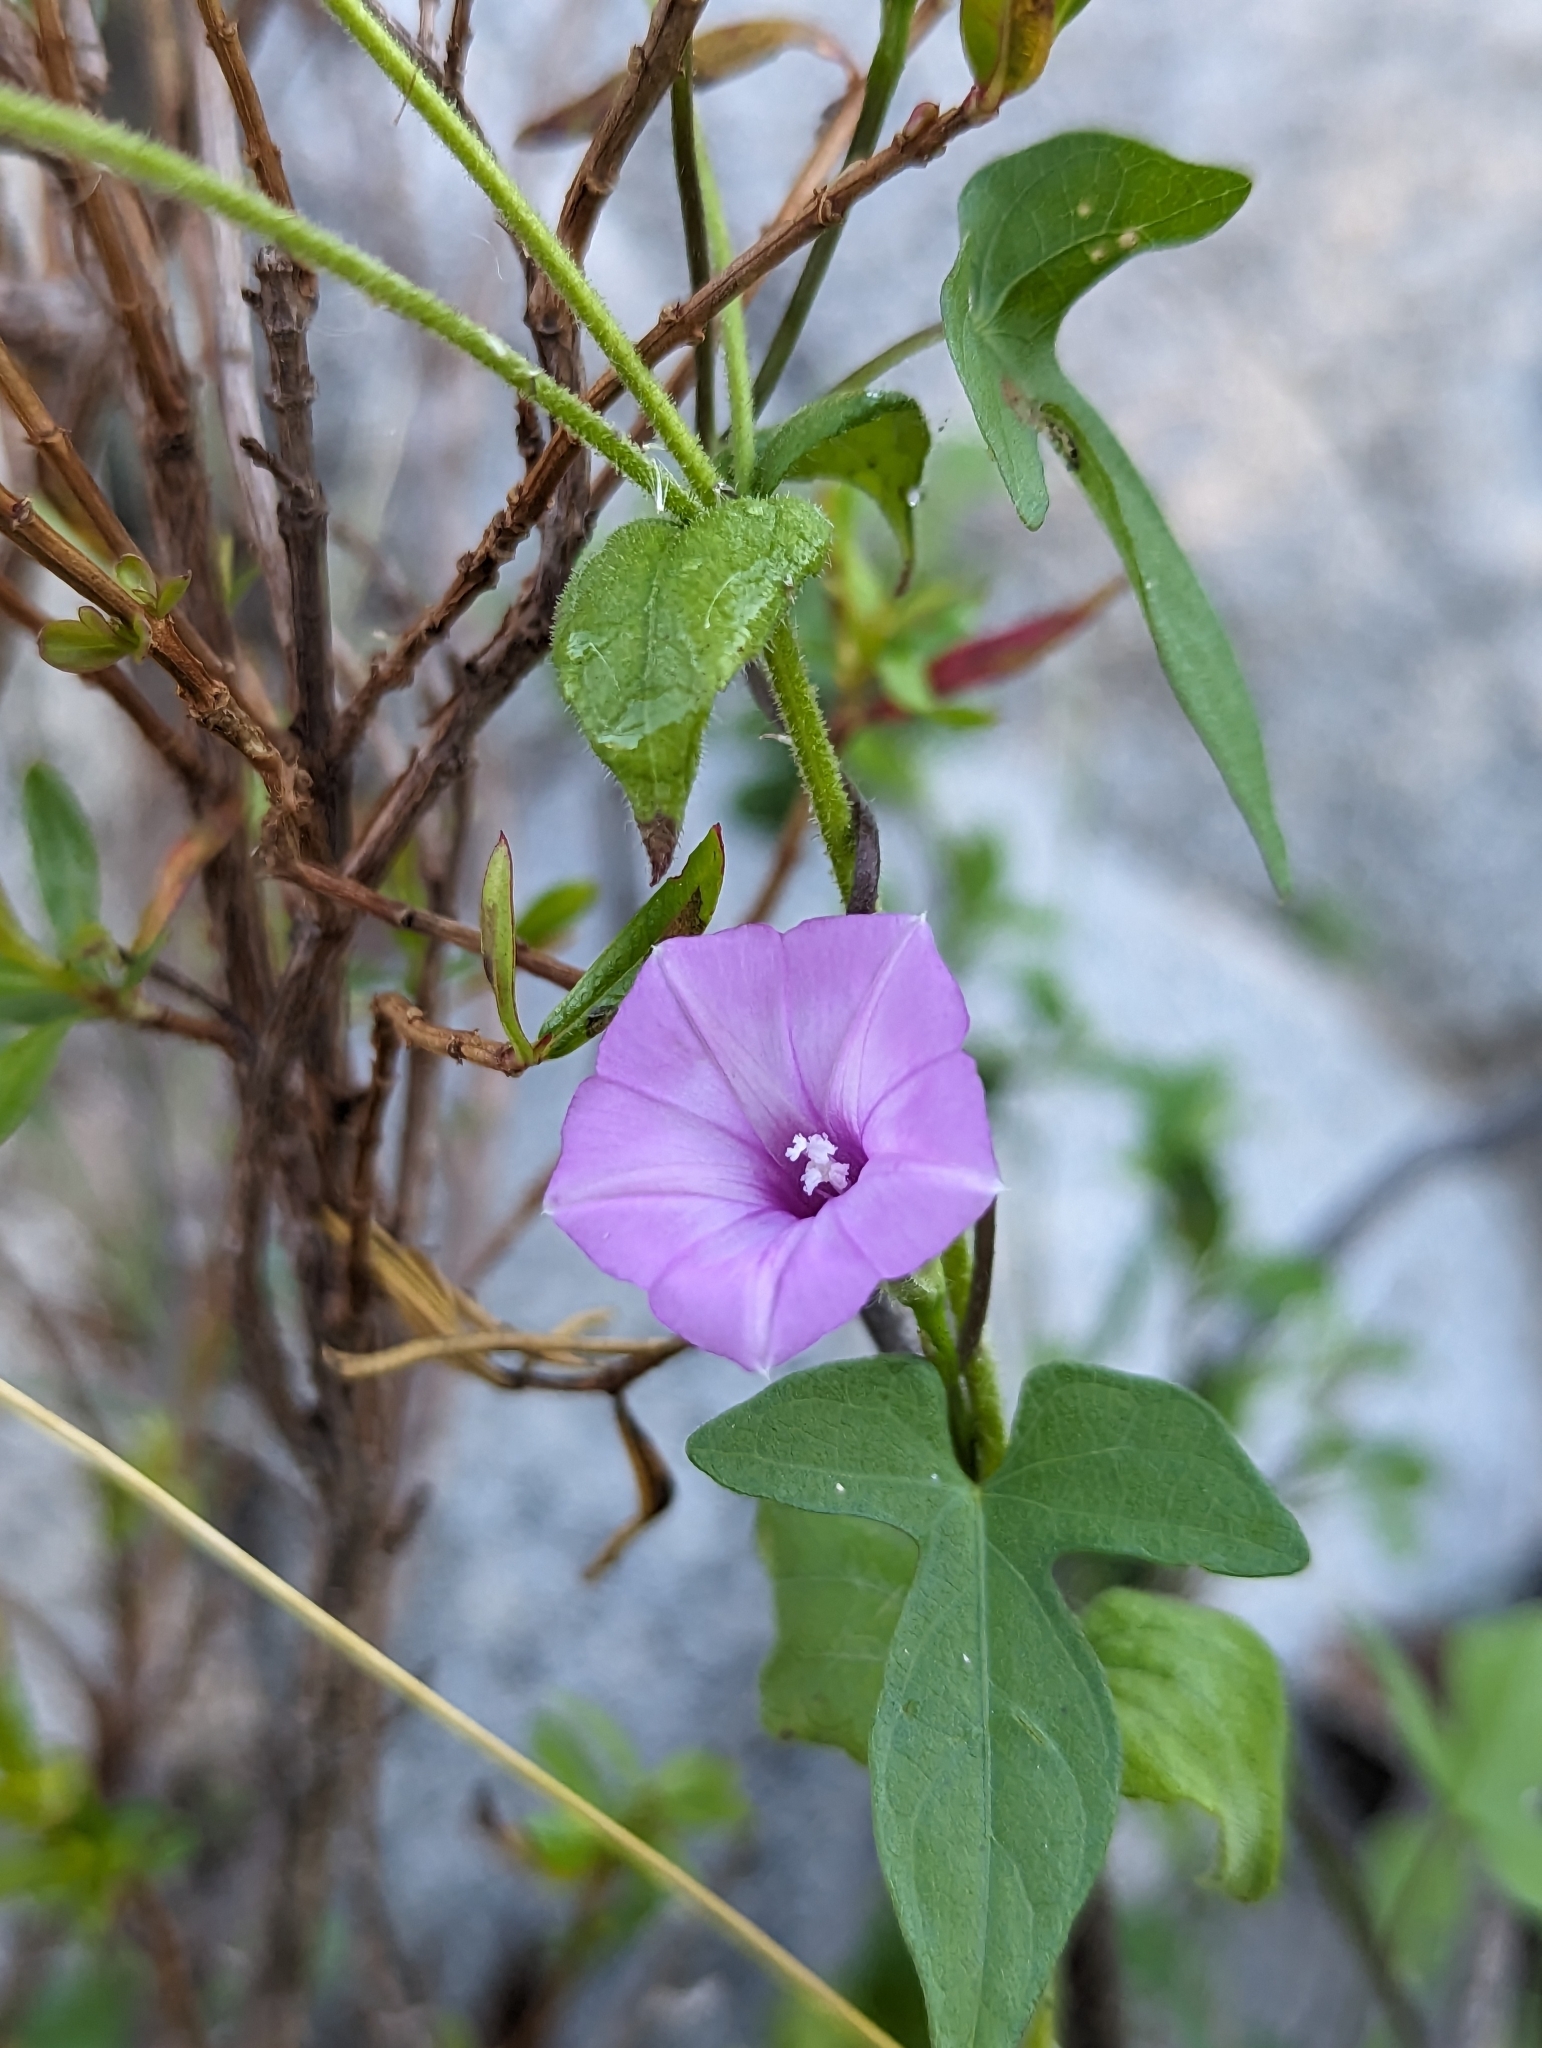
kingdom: Plantae
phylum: Tracheophyta
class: Magnoliopsida
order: Solanales
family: Convolvulaceae
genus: Ipomoea
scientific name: Ipomoea triloba
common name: Little-bell
